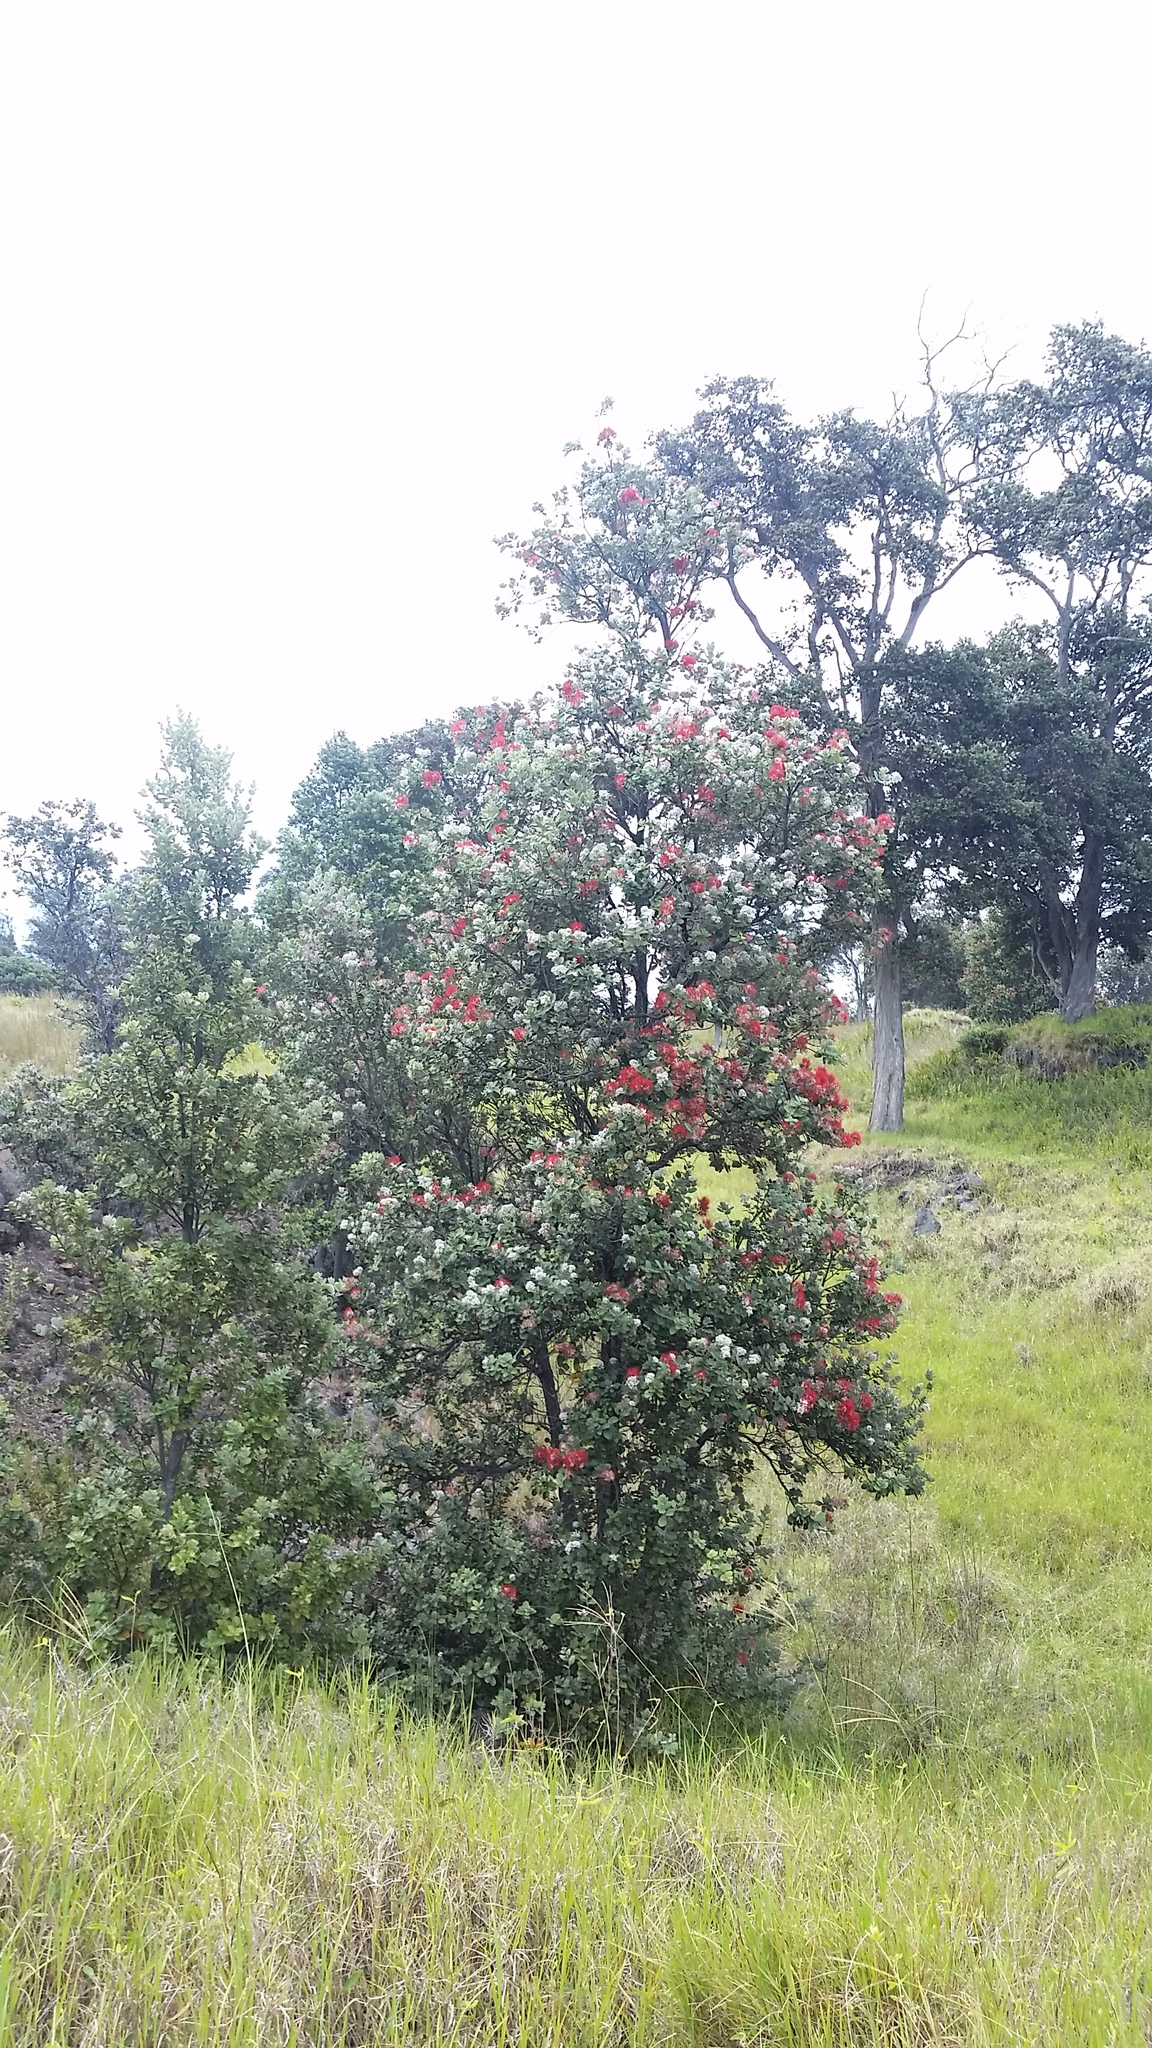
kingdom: Plantae
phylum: Tracheophyta
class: Magnoliopsida
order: Myrtales
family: Myrtaceae
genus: Metrosideros
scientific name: Metrosideros polymorpha
